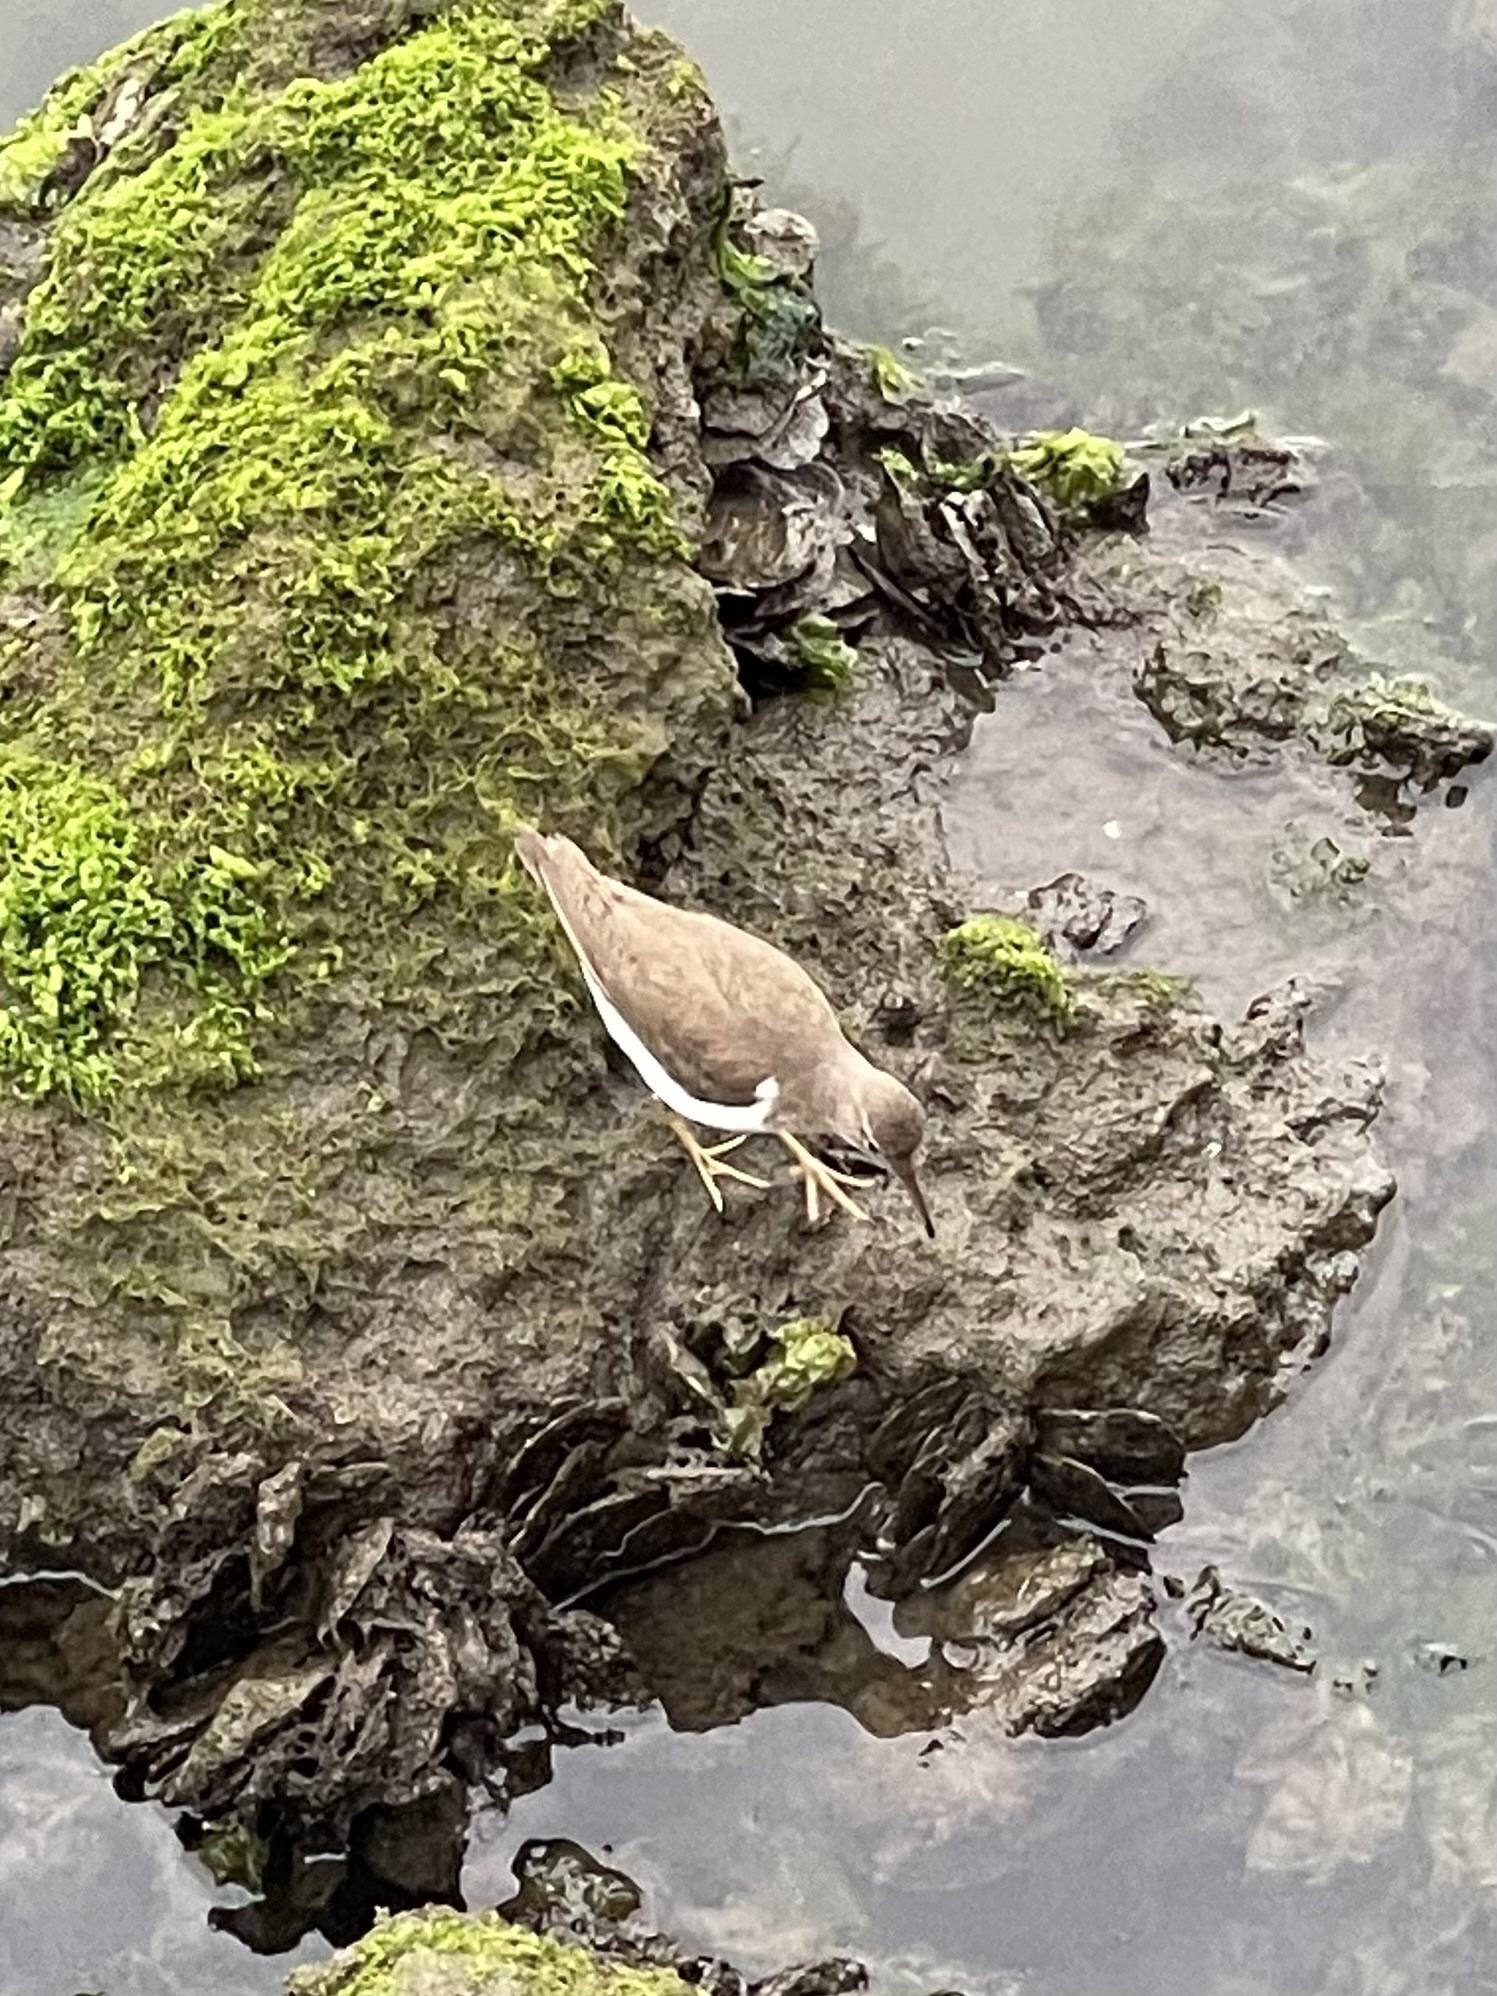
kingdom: Animalia
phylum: Chordata
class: Aves
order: Charadriiformes
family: Scolopacidae
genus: Actitis
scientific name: Actitis macularius
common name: Spotted sandpiper
